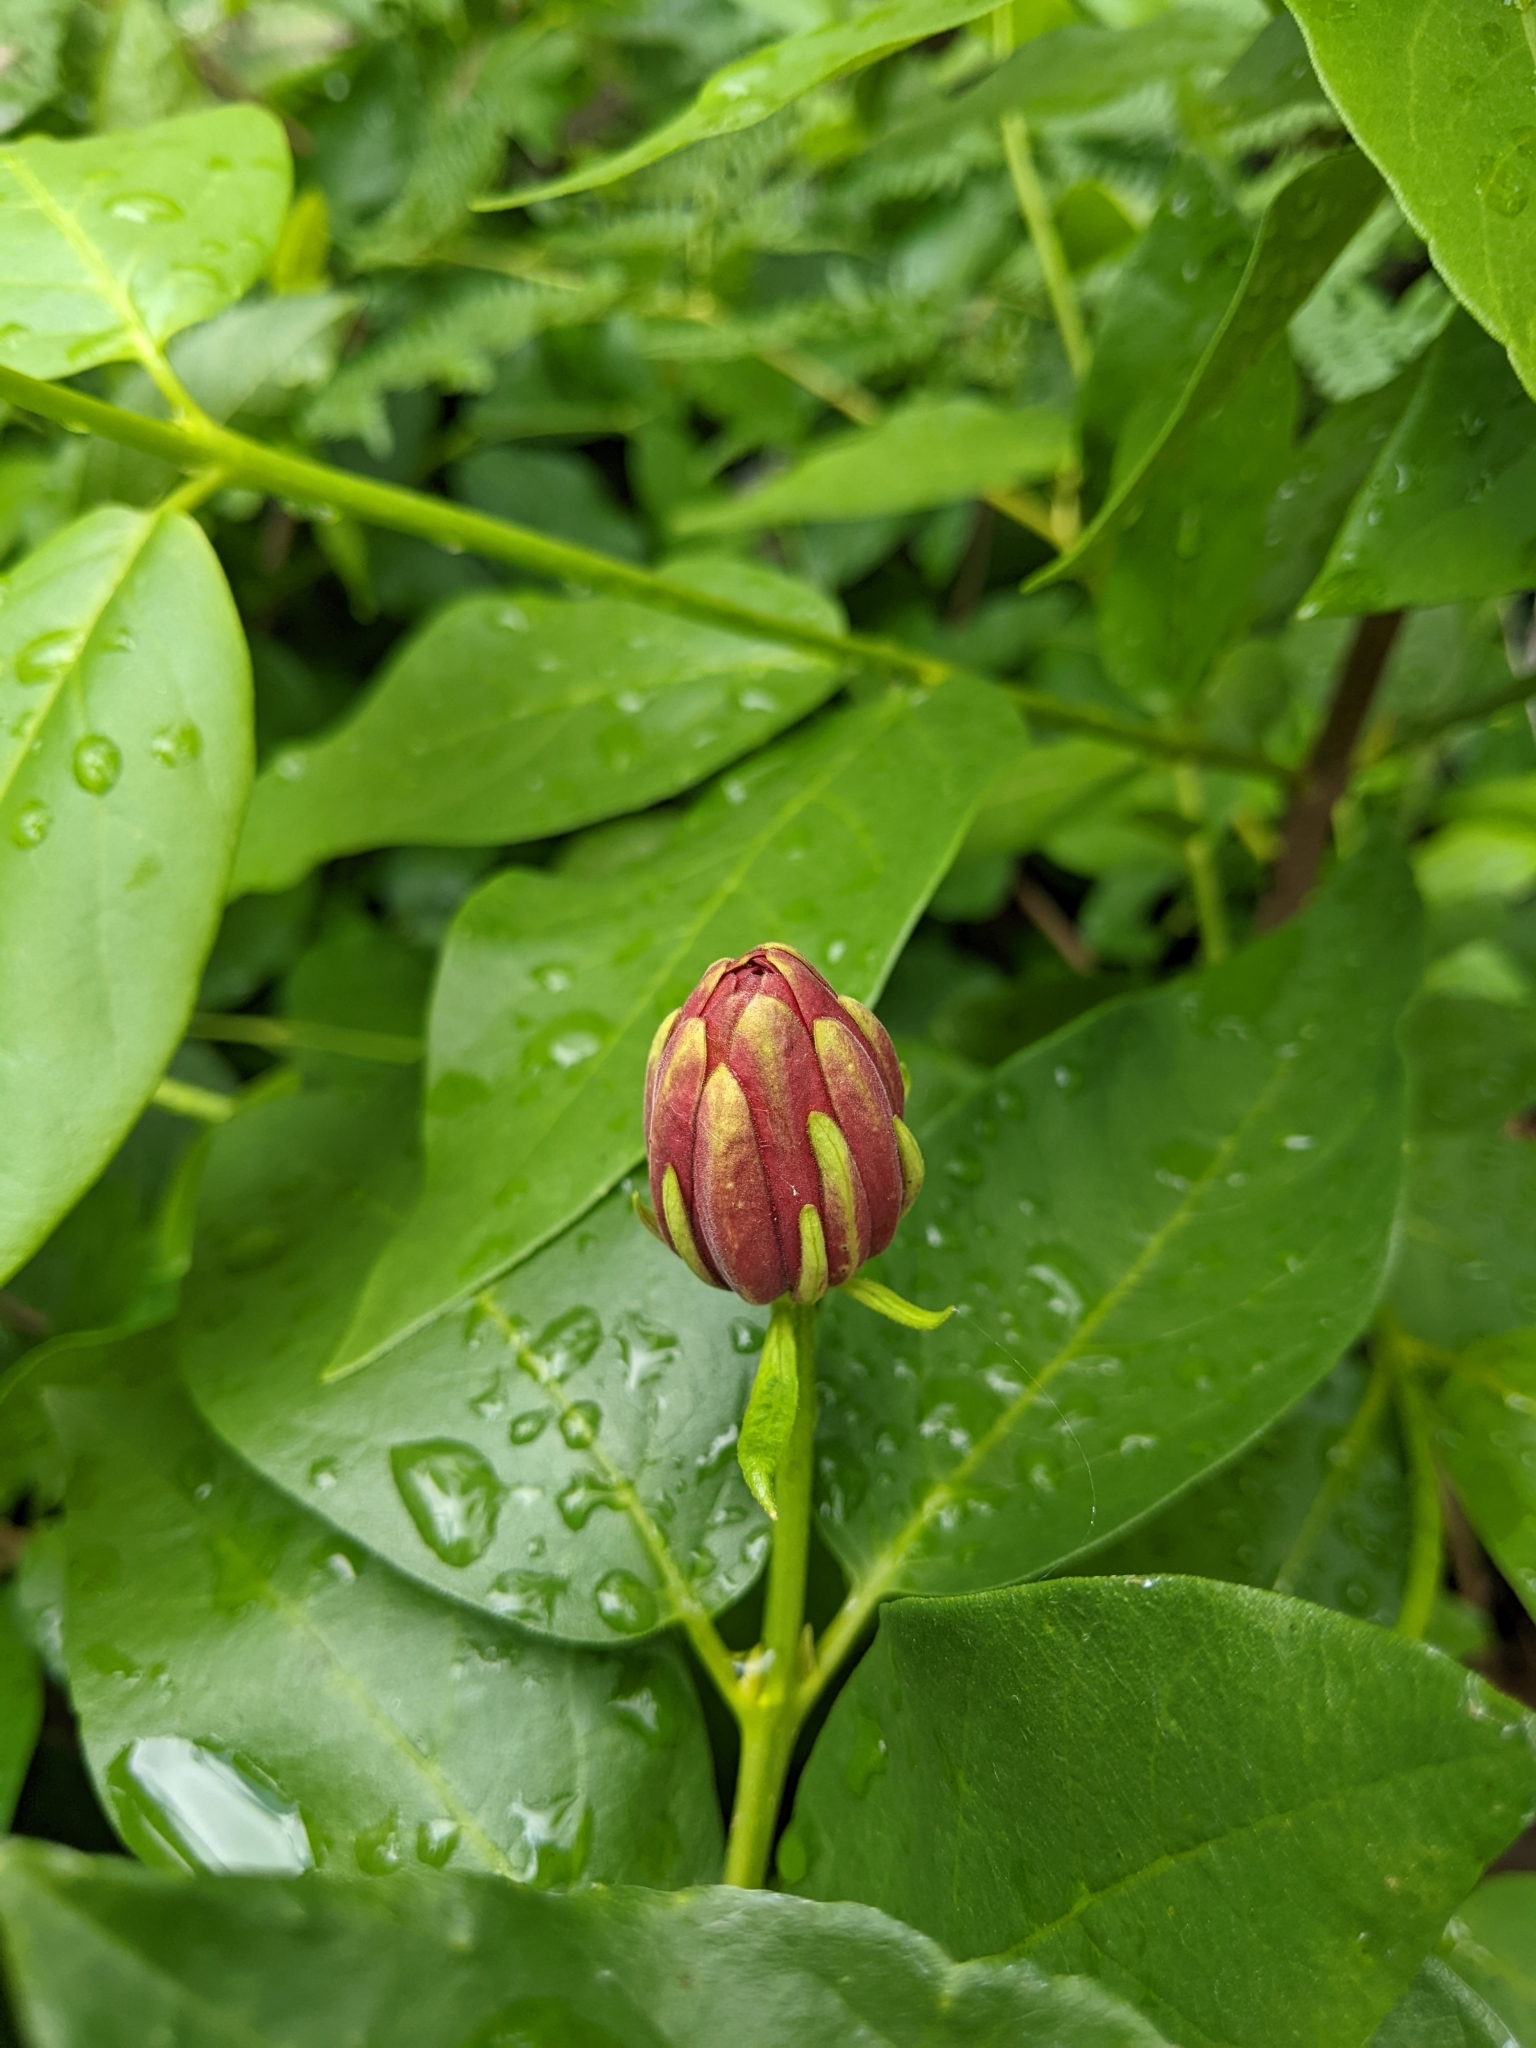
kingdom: Plantae
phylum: Tracheophyta
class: Magnoliopsida
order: Laurales
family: Calycanthaceae
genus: Calycanthus
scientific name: Calycanthus occidentalis
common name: California spicebush
